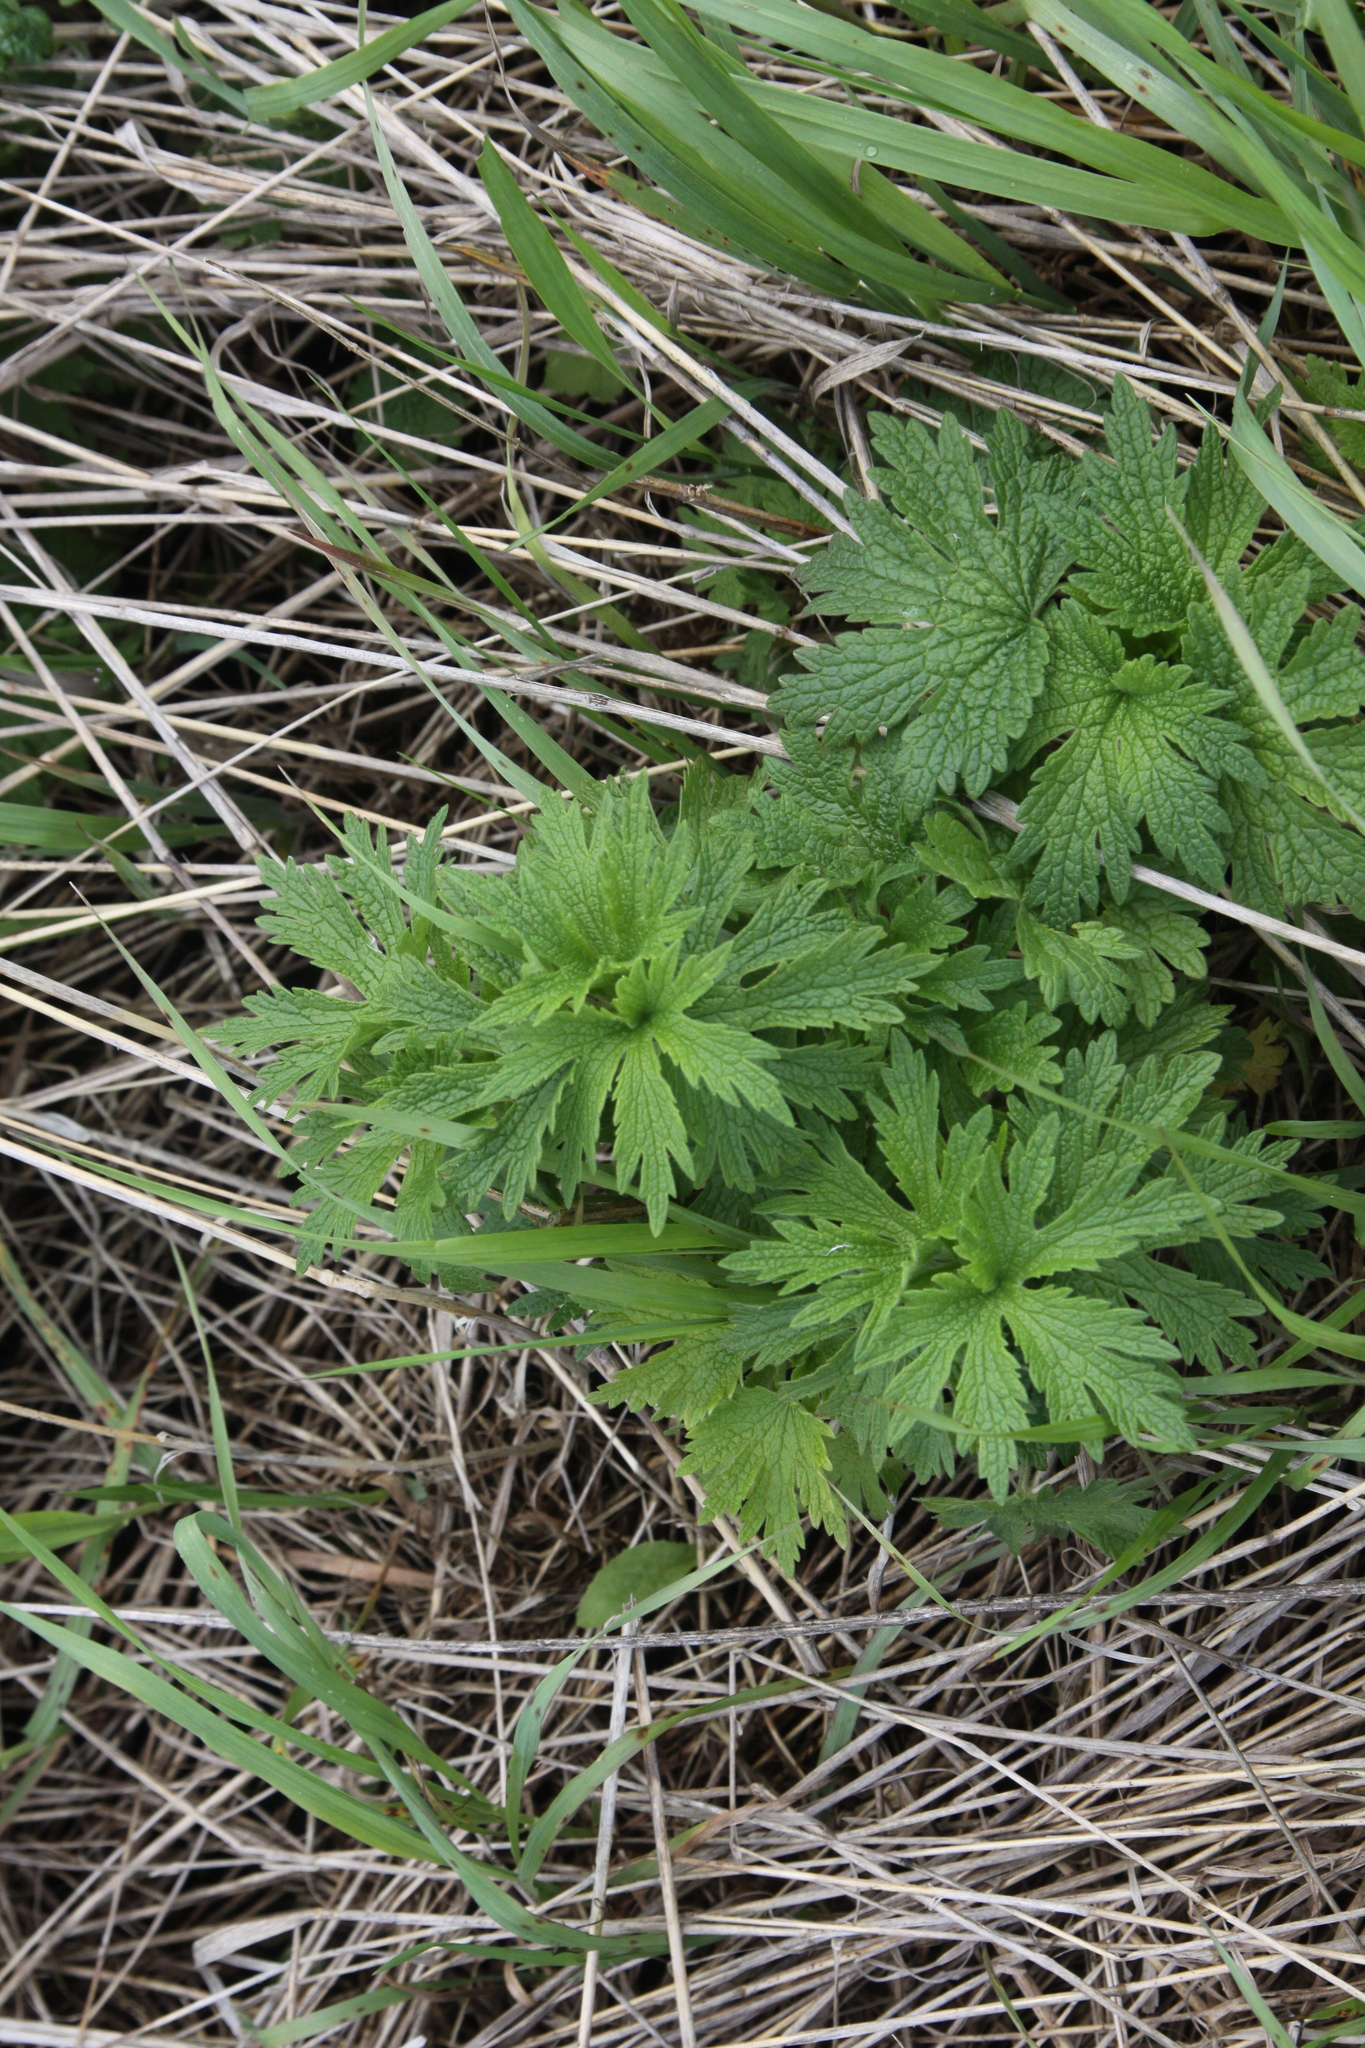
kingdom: Plantae
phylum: Tracheophyta
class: Magnoliopsida
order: Lamiales
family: Lamiaceae
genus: Leonurus
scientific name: Leonurus quinquelobatus
